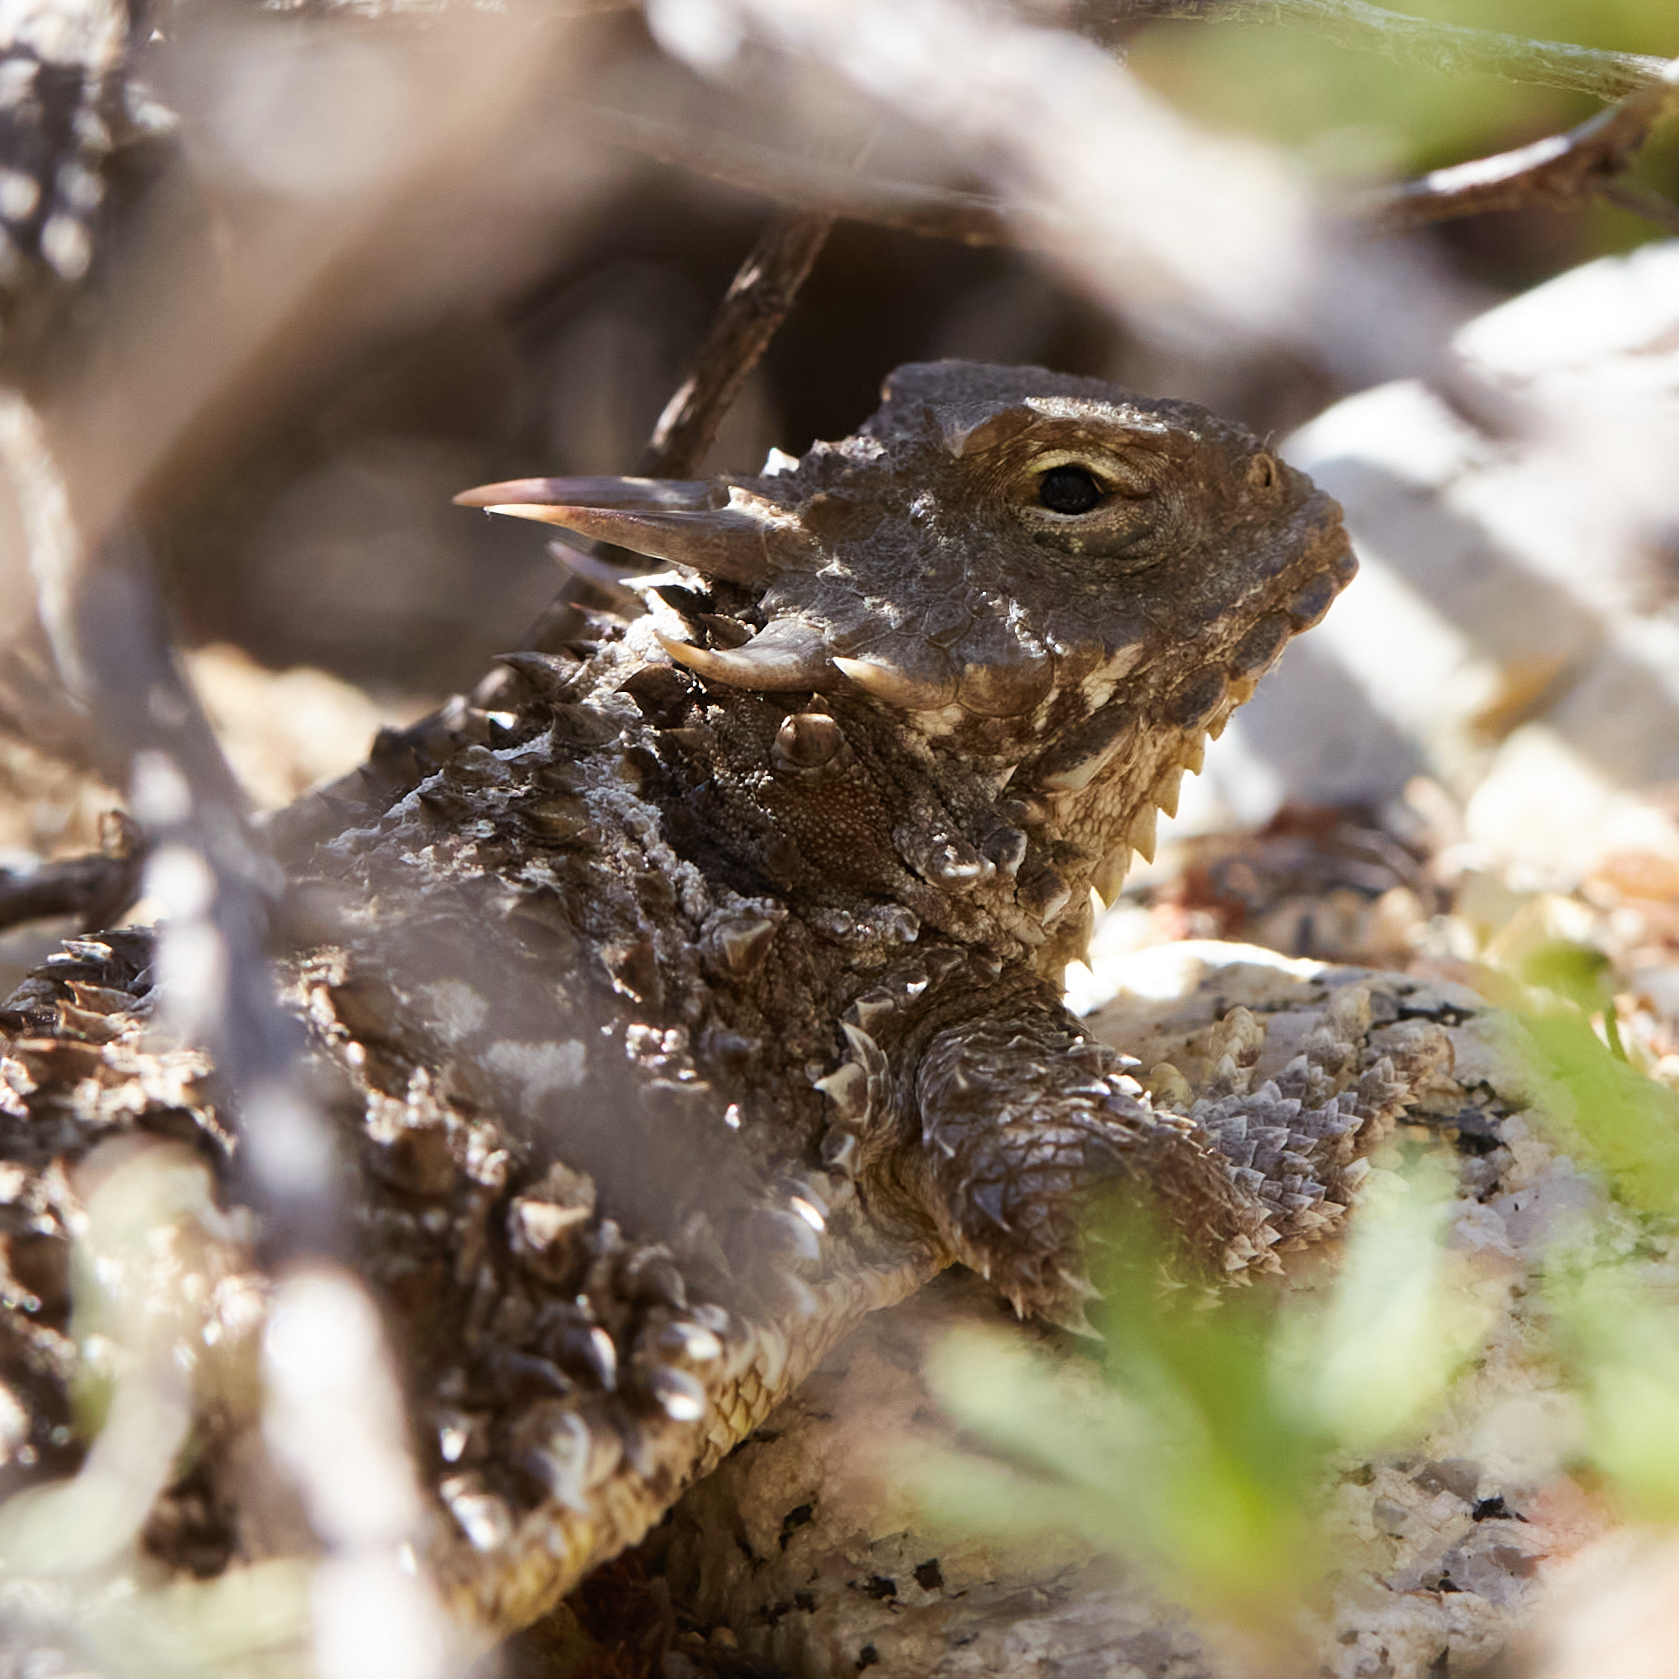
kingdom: Animalia
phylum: Chordata
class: Squamata
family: Phrynosomatidae
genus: Phrynosoma
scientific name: Phrynosoma blainvillii
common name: San diego horned lizard
